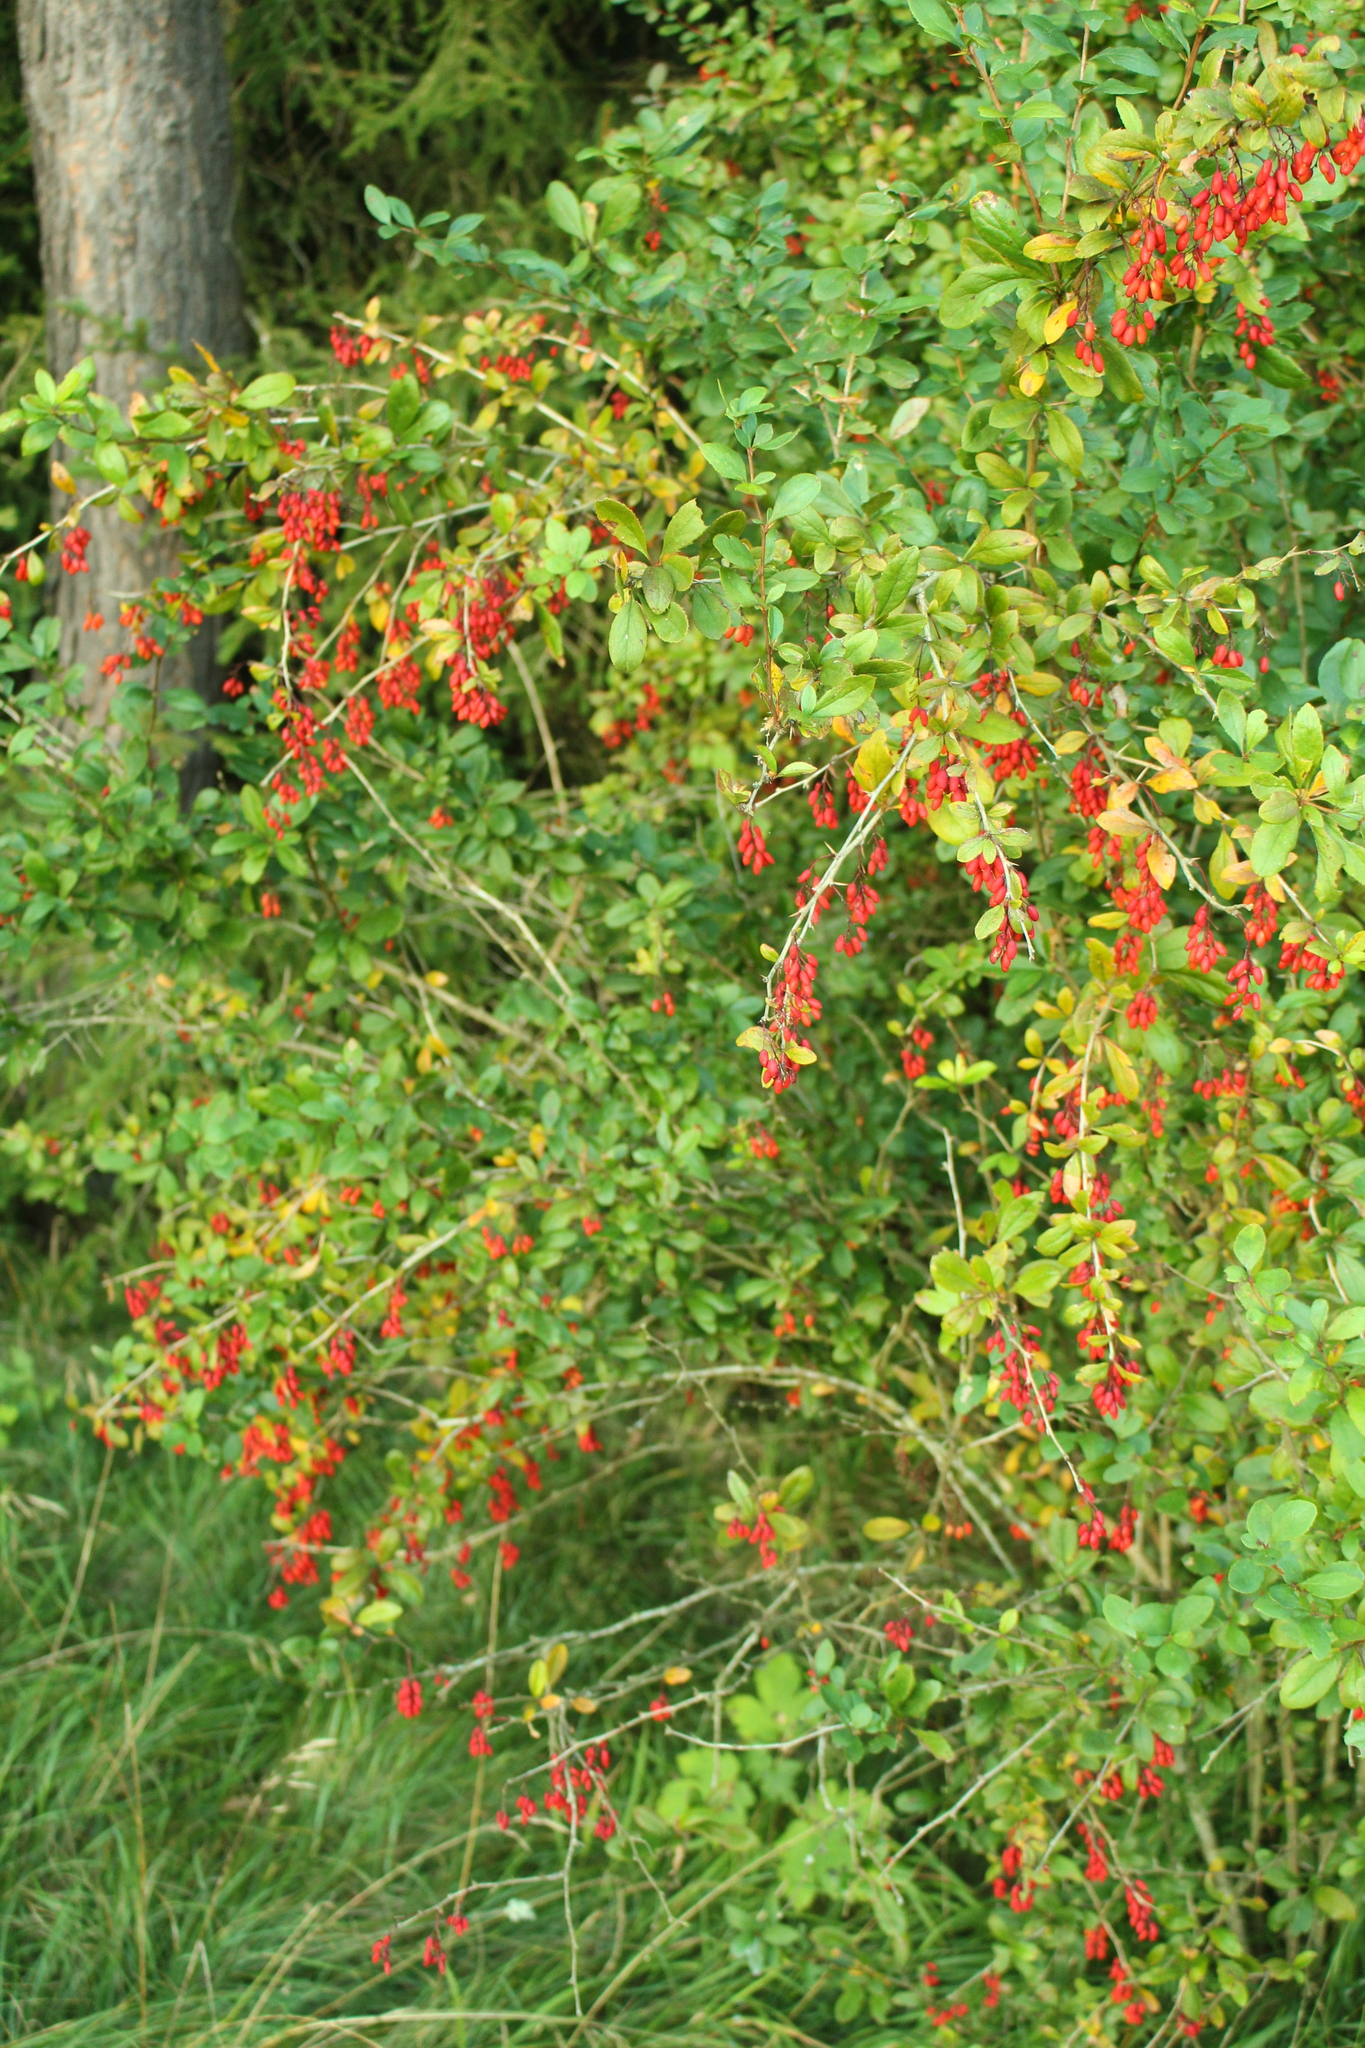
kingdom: Plantae
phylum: Tracheophyta
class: Magnoliopsida
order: Ranunculales
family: Berberidaceae
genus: Berberis
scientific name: Berberis vulgaris
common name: Barberry
